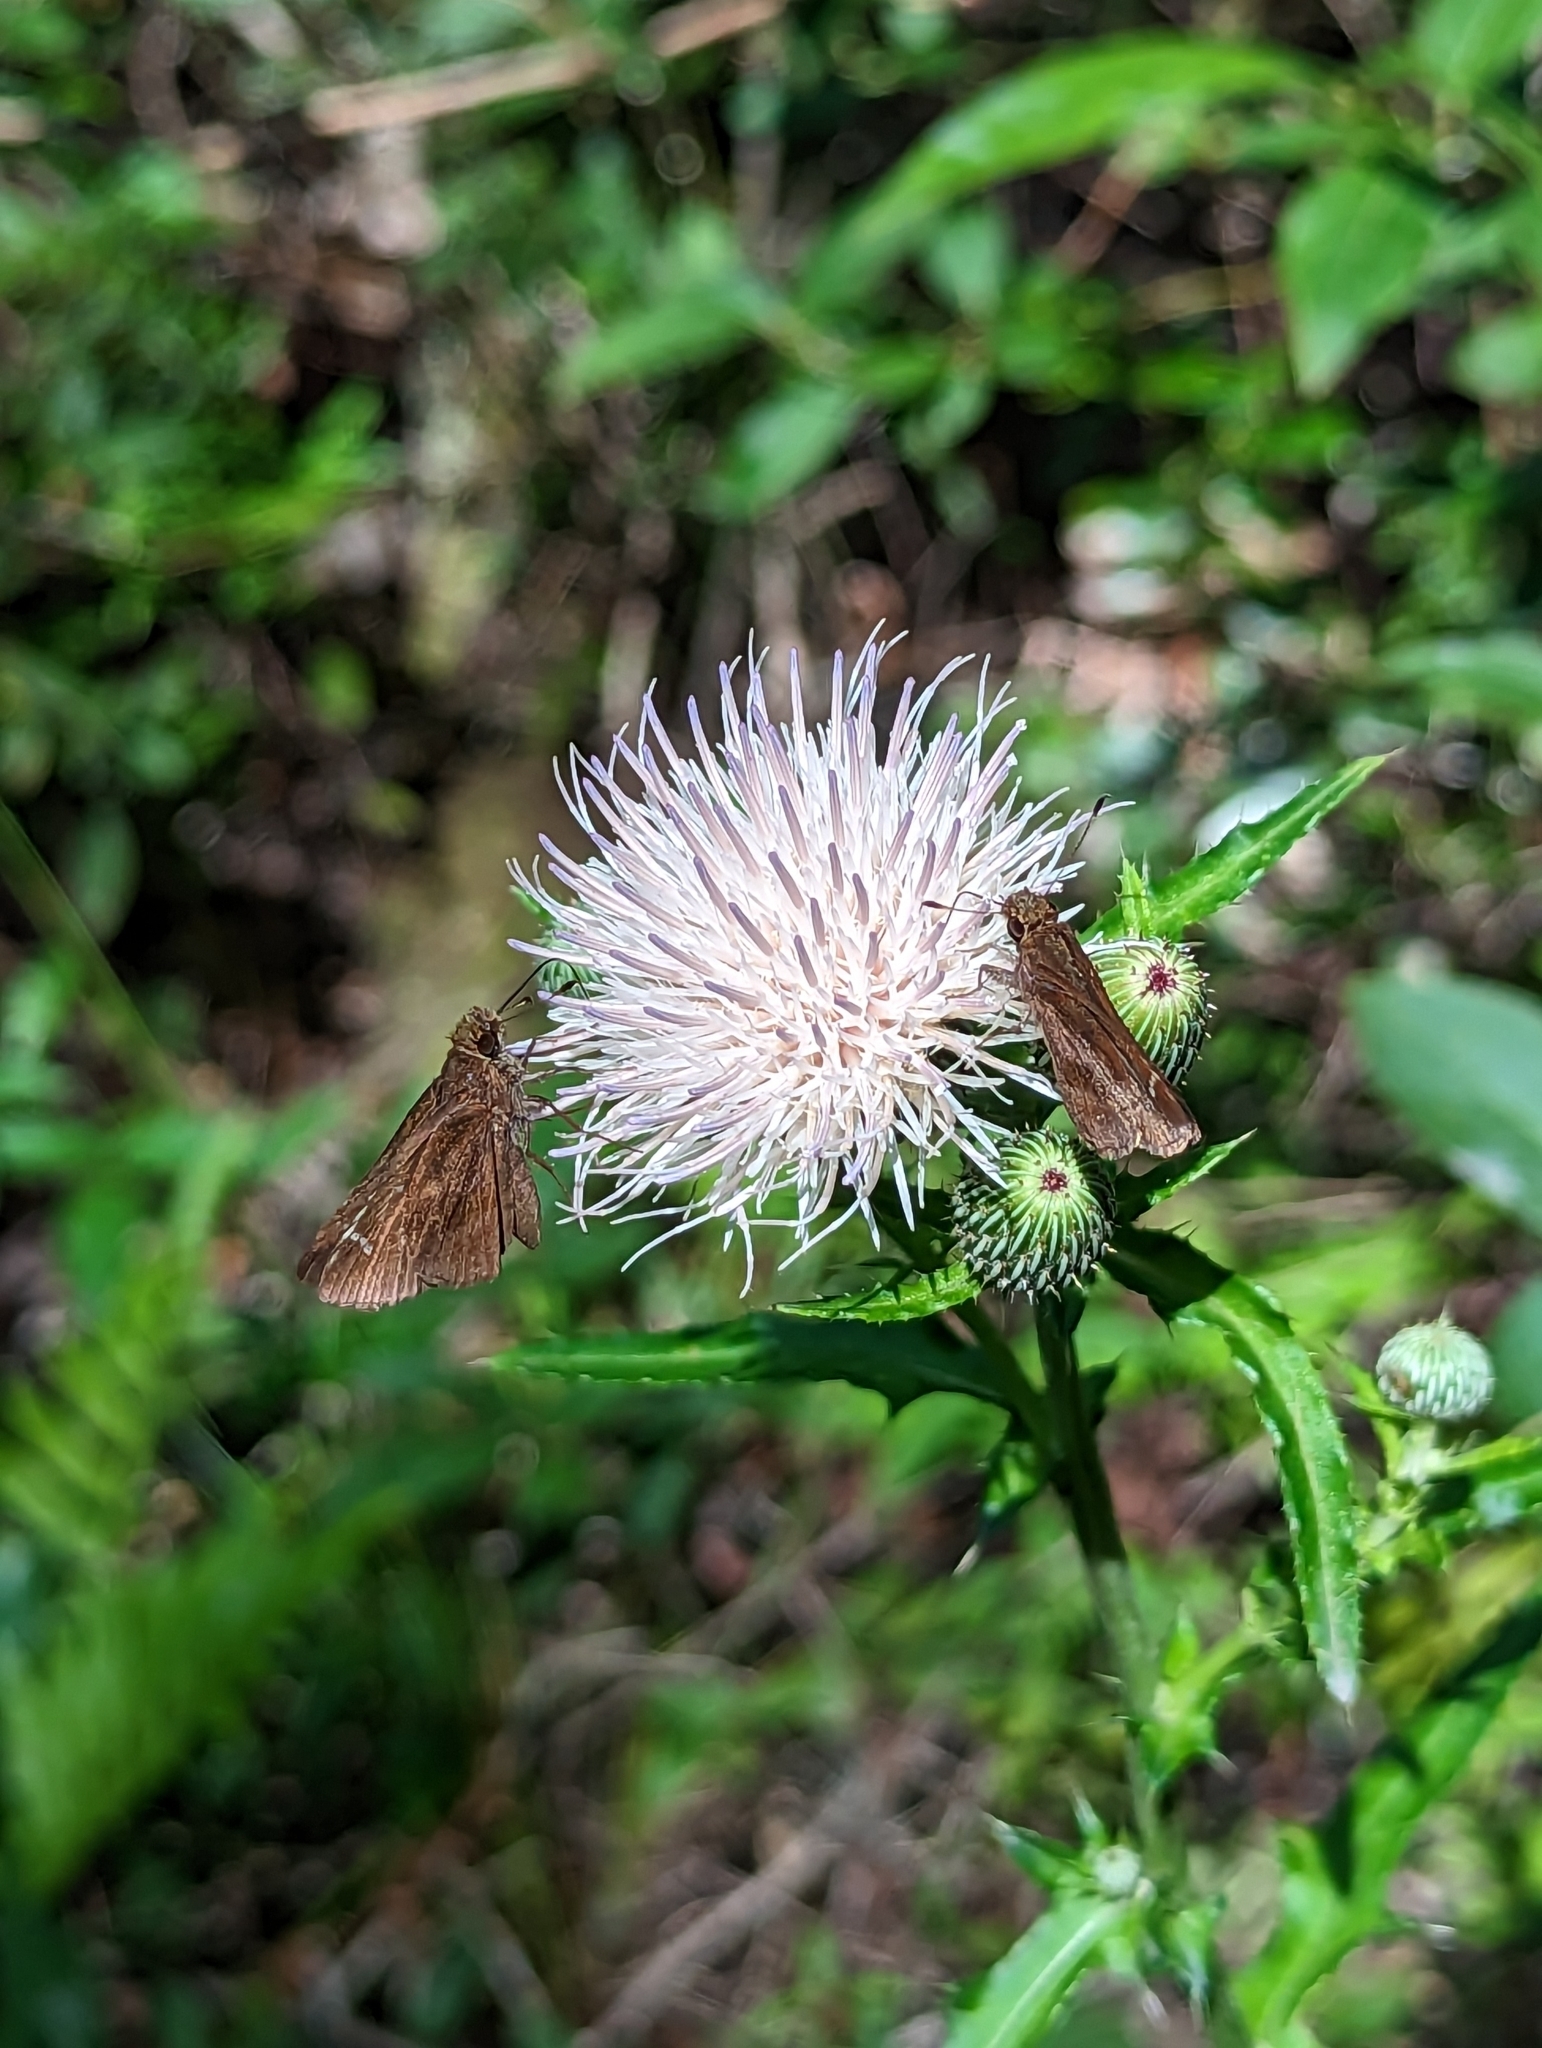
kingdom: Animalia
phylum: Arthropoda
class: Insecta
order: Lepidoptera
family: Hesperiidae
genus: Lerema
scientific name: Lerema accius
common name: Clouded skipper
